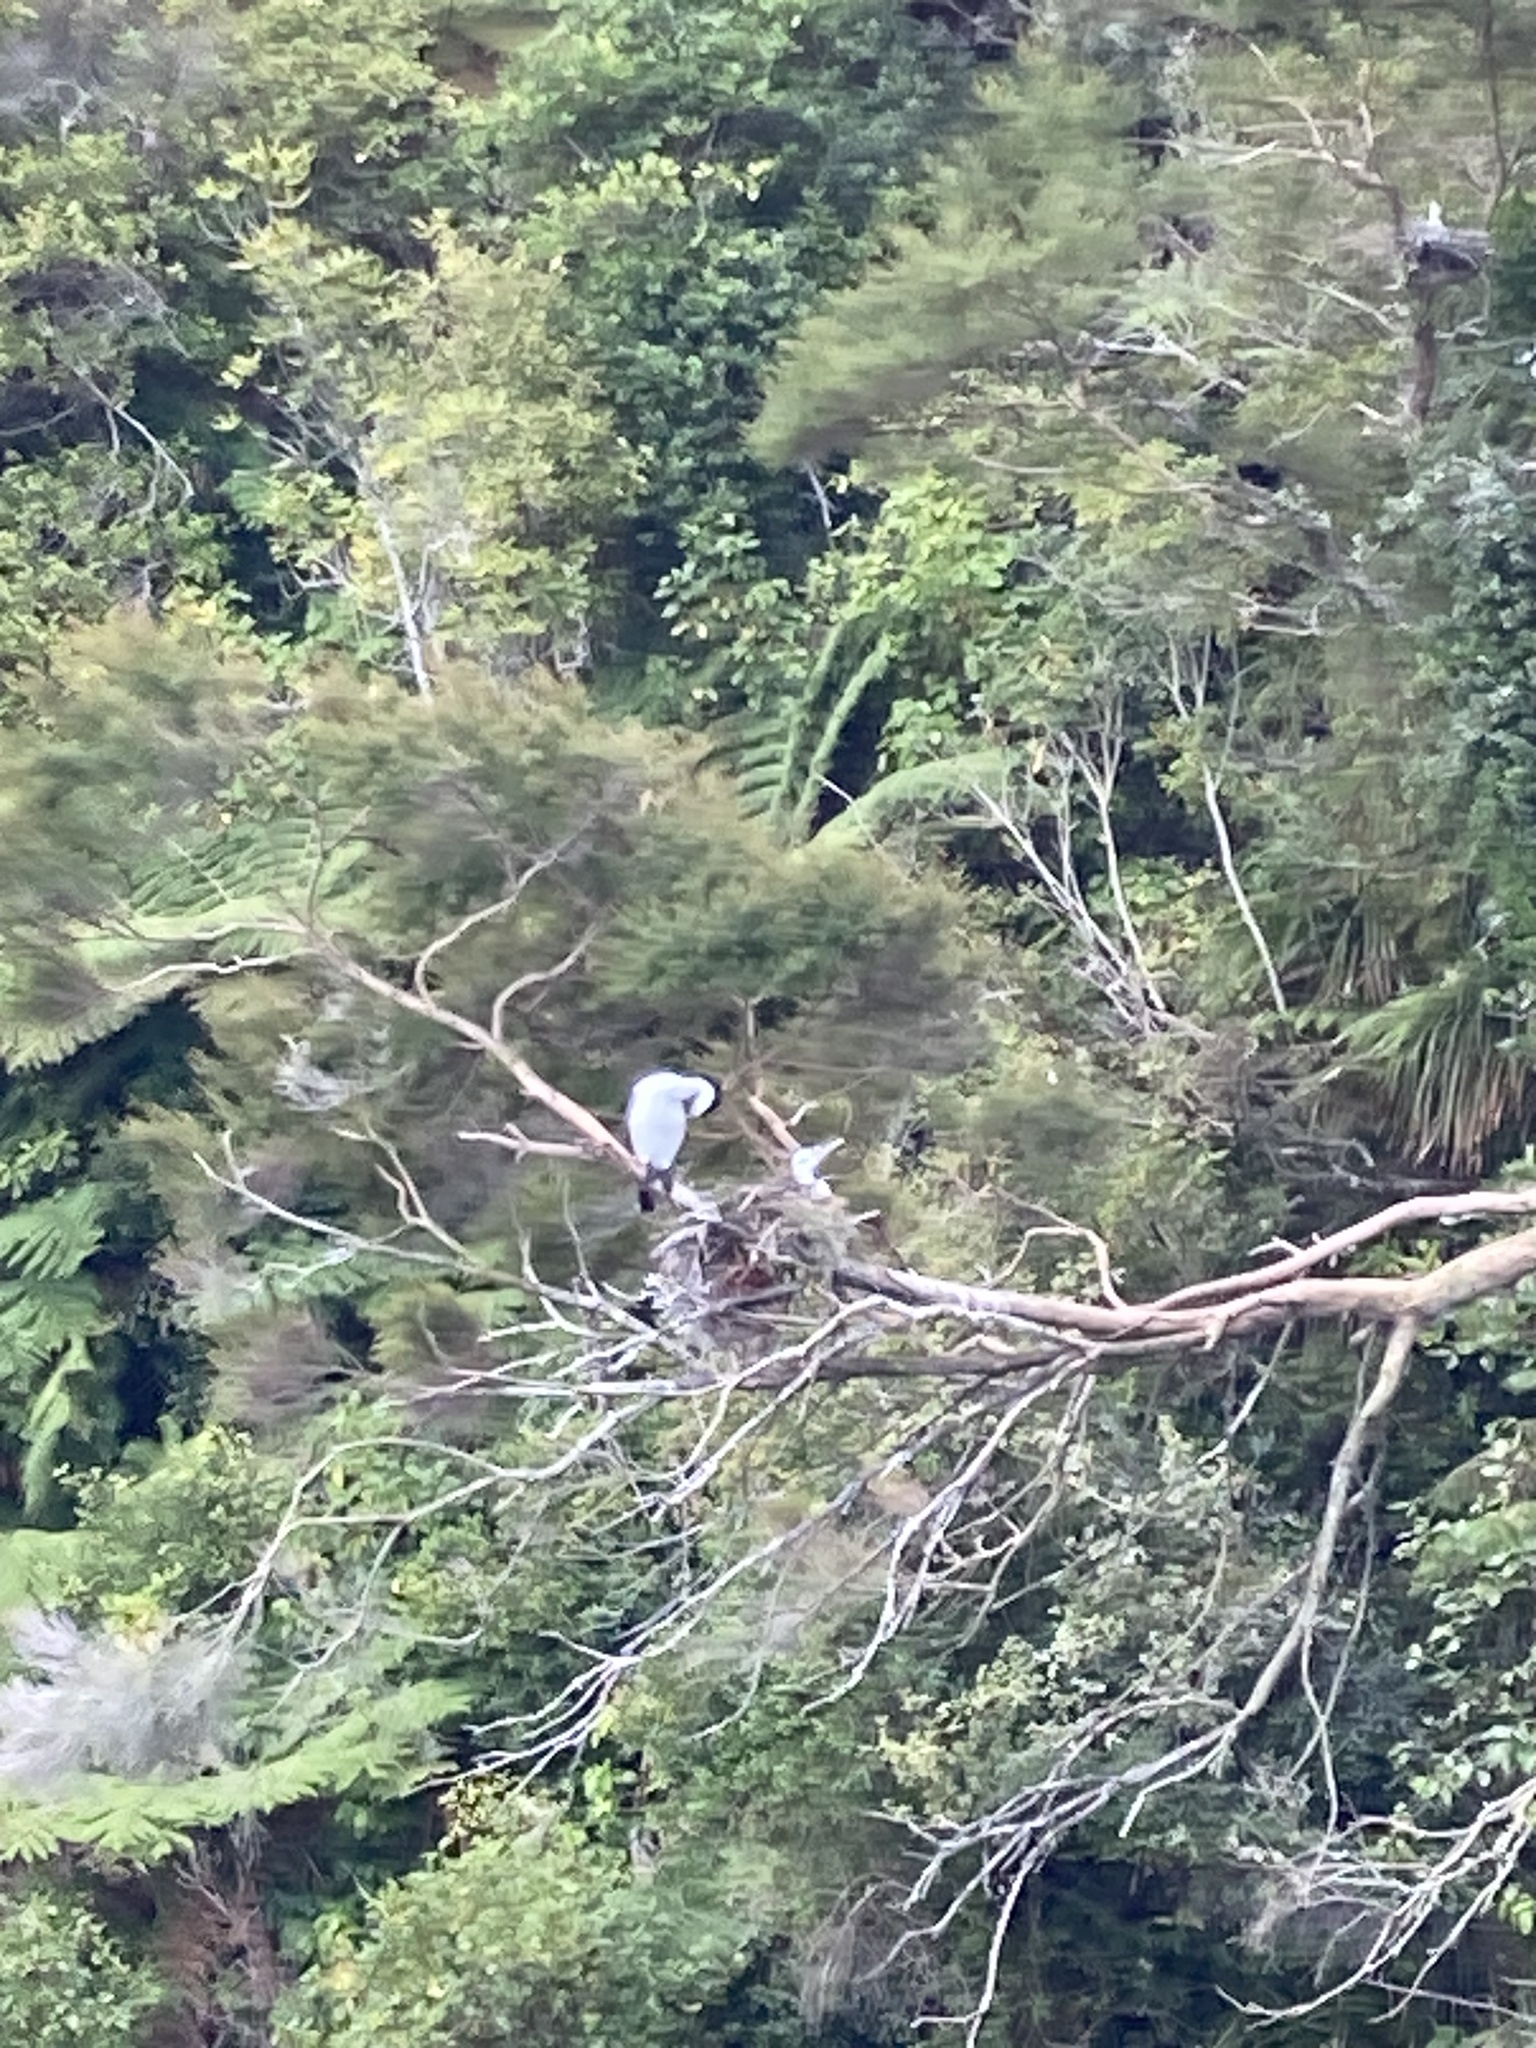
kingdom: Animalia
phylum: Chordata
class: Aves
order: Suliformes
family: Phalacrocoracidae
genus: Phalacrocorax
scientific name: Phalacrocorax varius
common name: Pied cormorant
